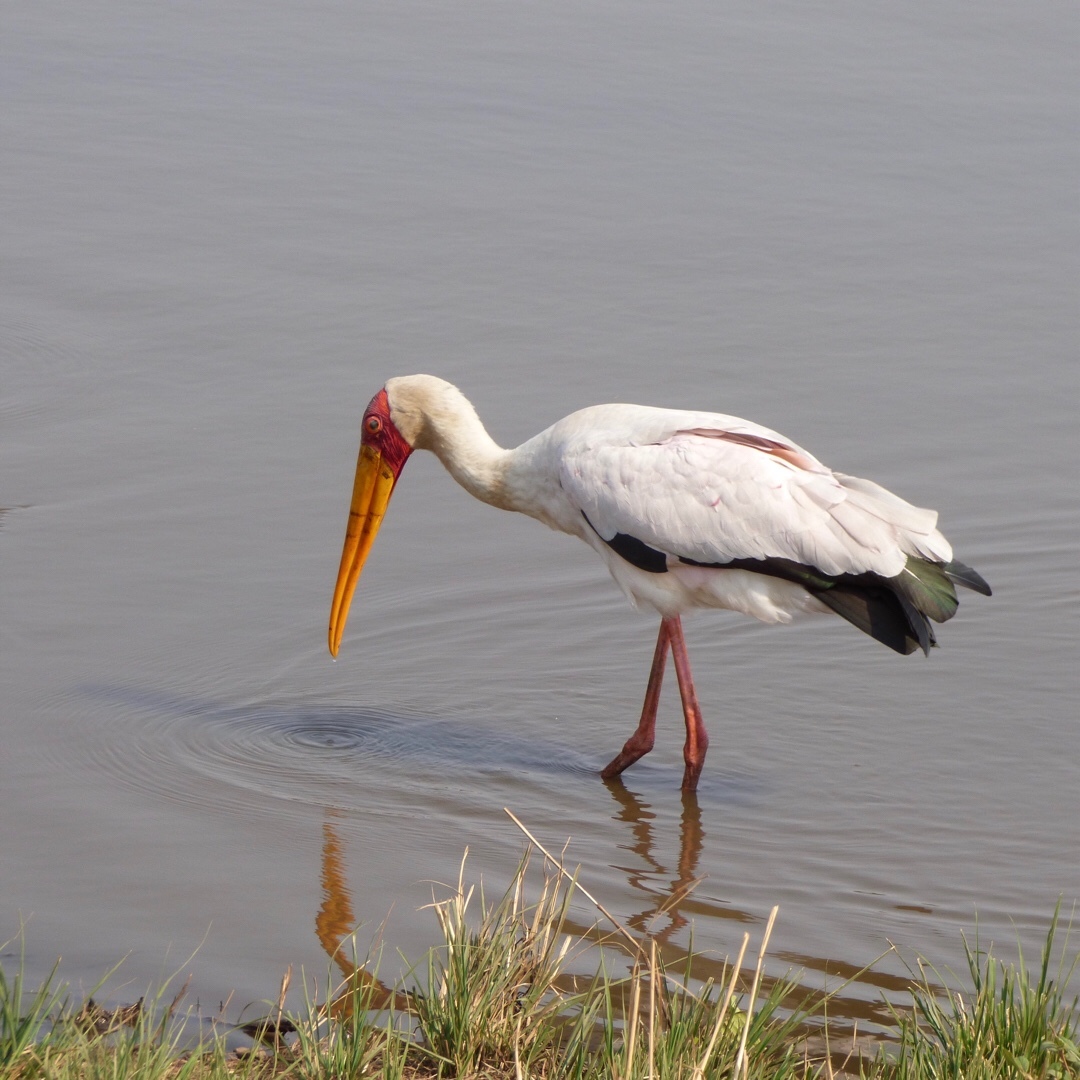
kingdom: Animalia
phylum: Chordata
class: Aves
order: Ciconiiformes
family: Ciconiidae
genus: Mycteria
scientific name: Mycteria ibis
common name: Yellow-billed stork
